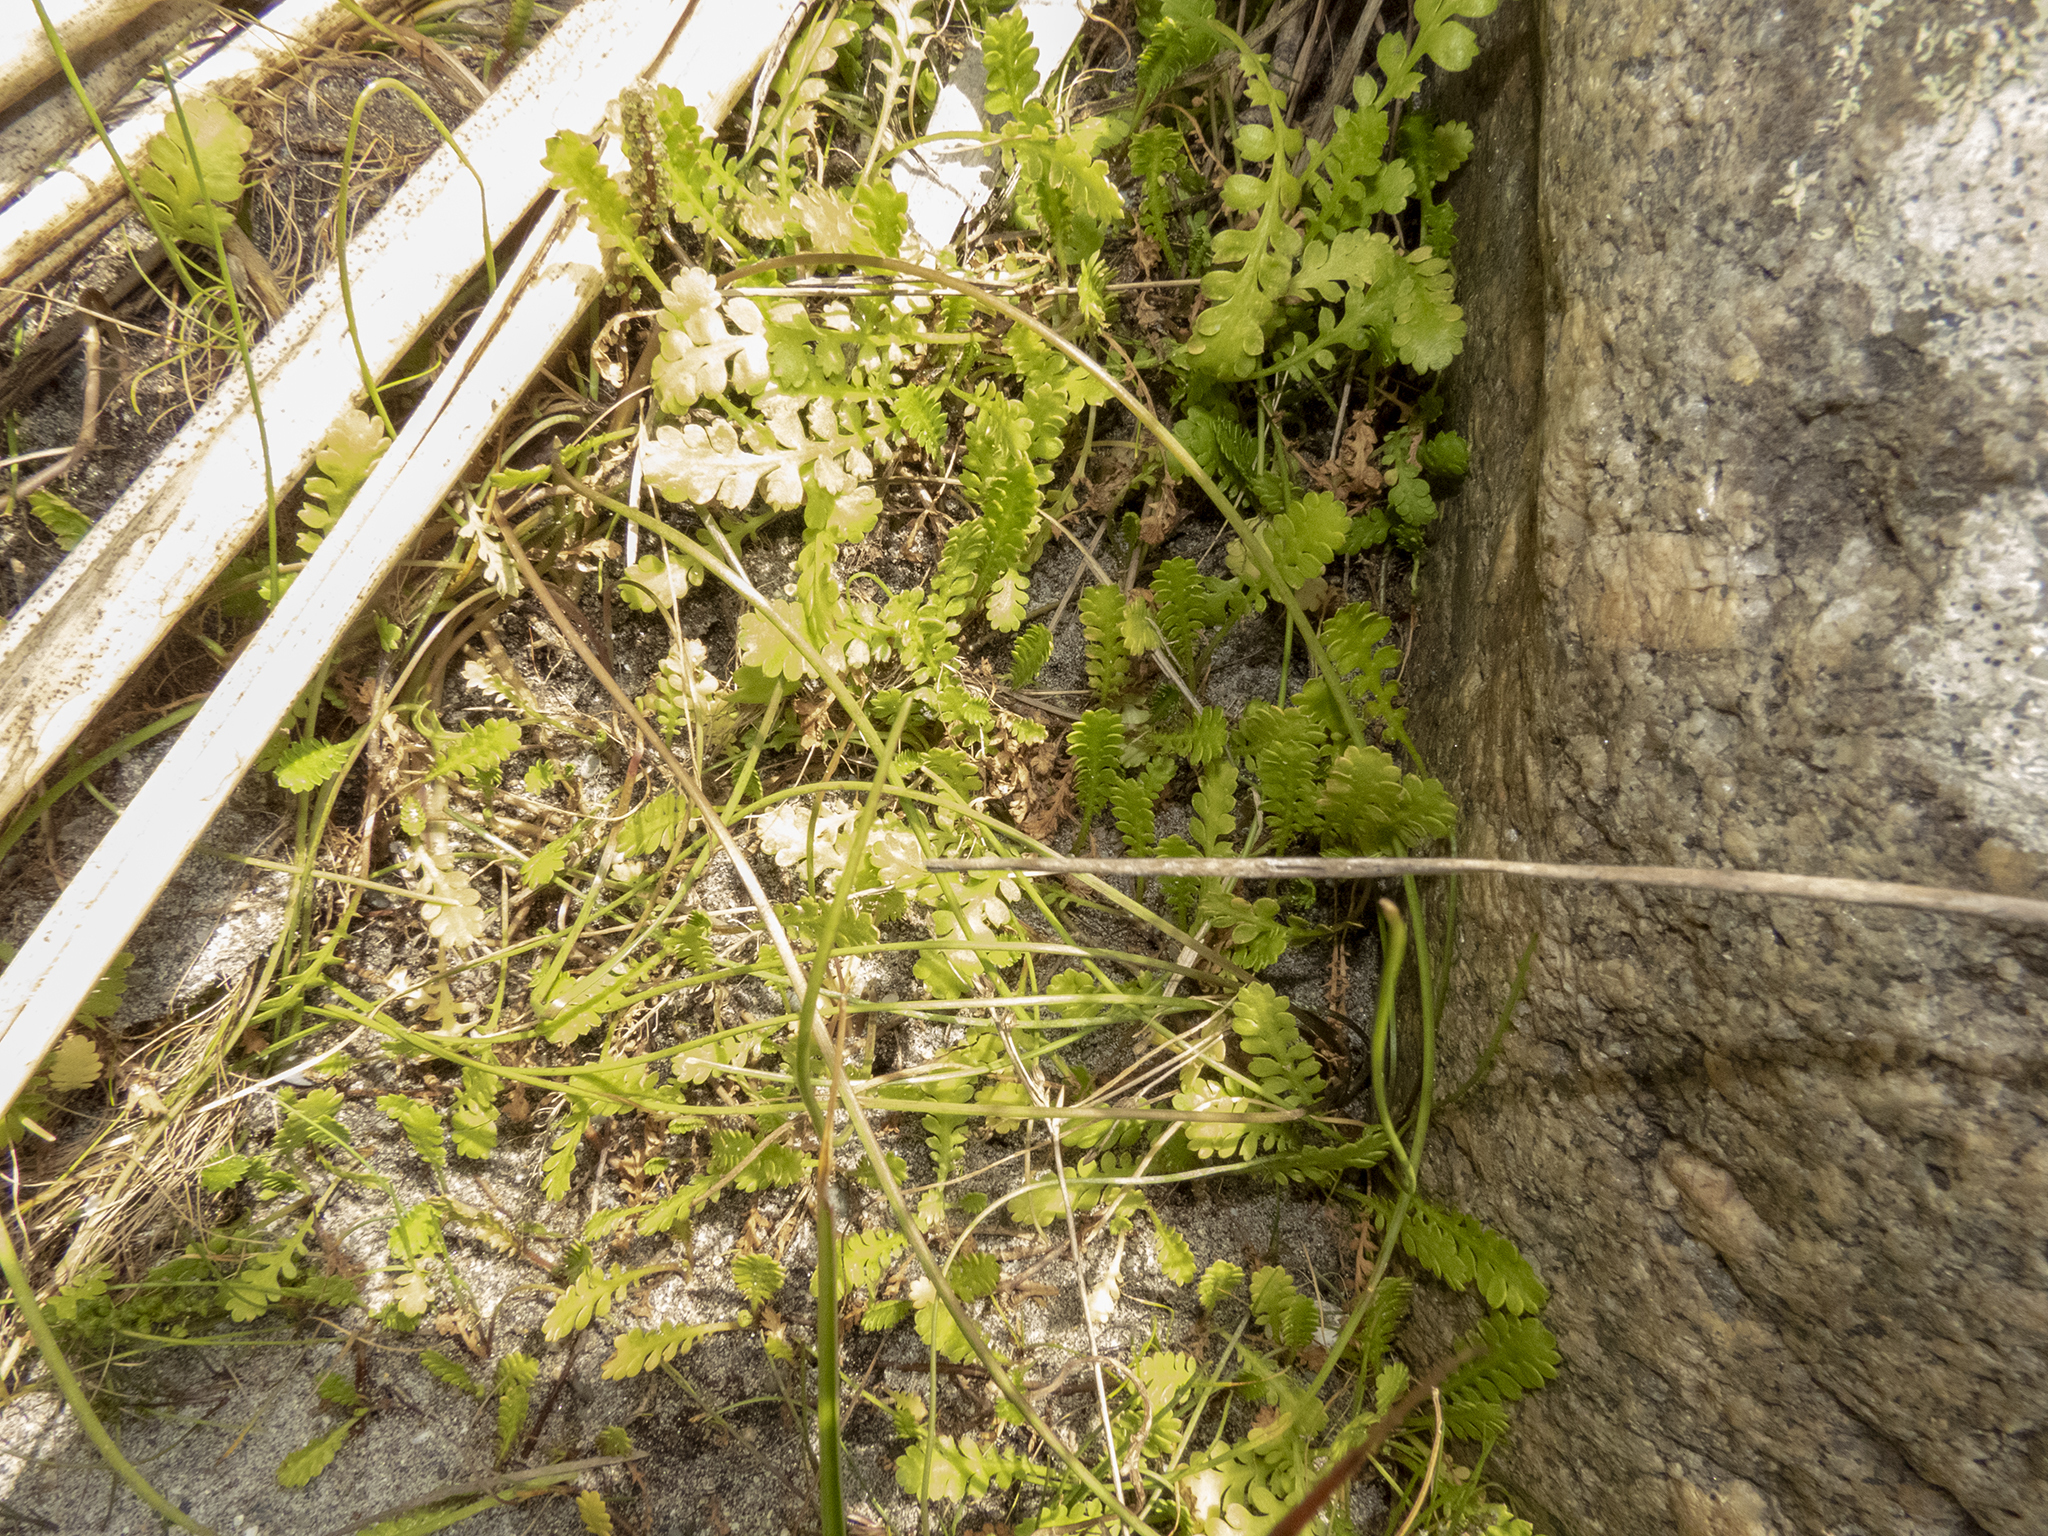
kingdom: Plantae
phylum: Tracheophyta
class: Magnoliopsida
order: Asterales
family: Asteraceae
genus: Leptinella
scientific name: Leptinella dioica
